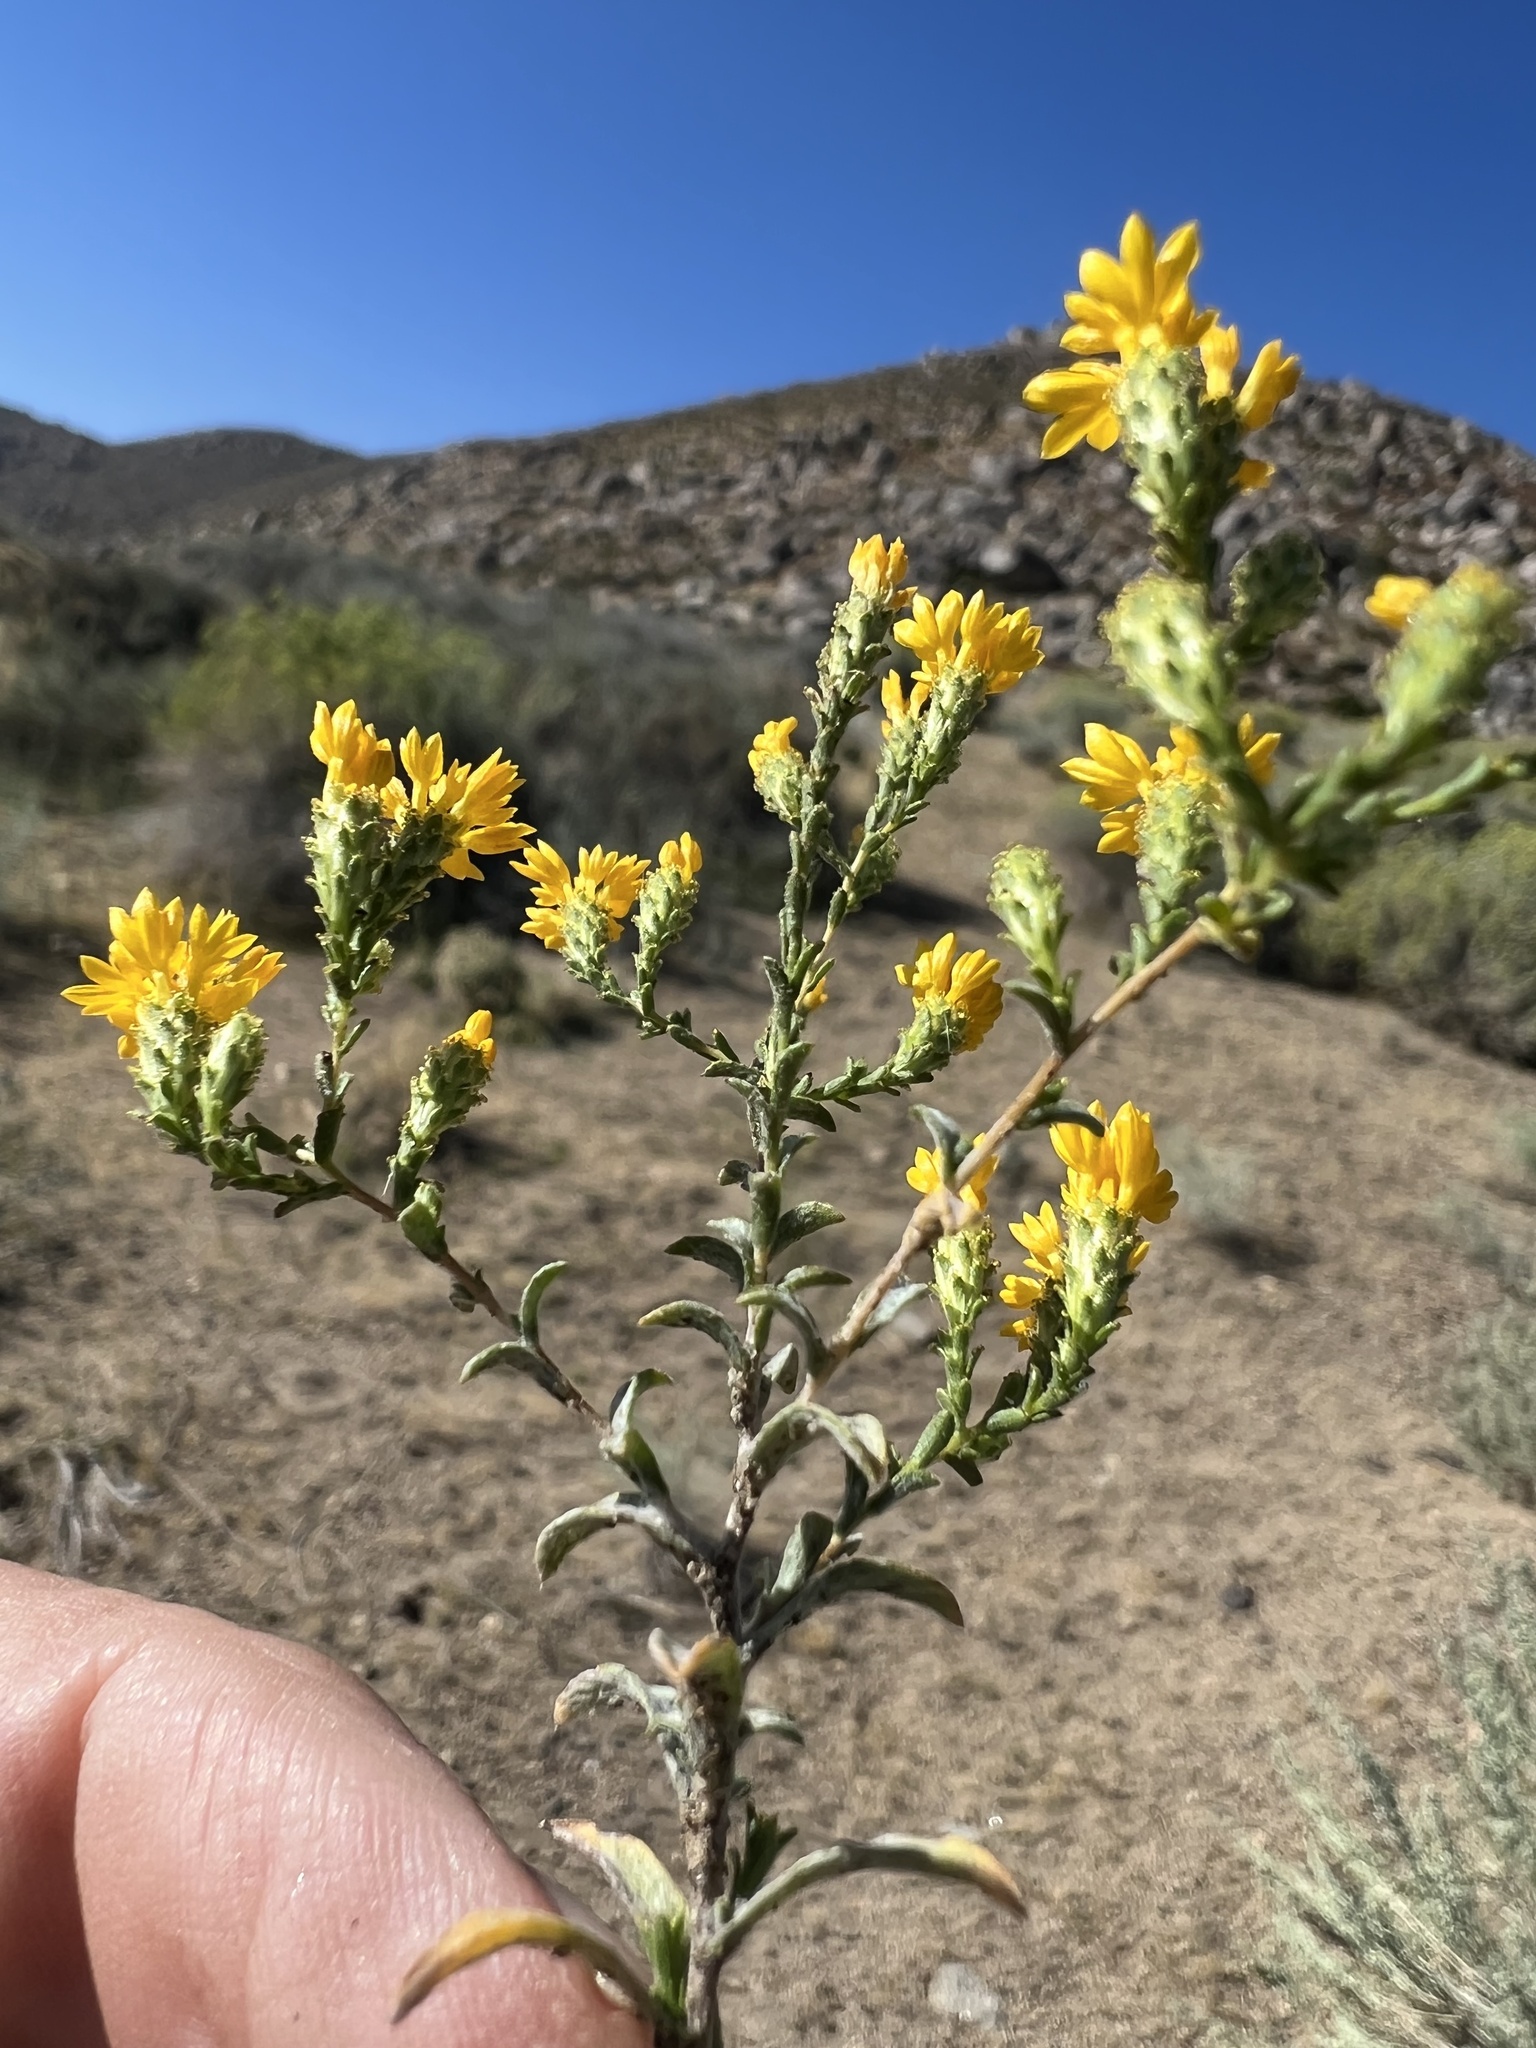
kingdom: Plantae
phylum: Tracheophyta
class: Magnoliopsida
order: Asterales
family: Asteraceae
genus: Lessingia
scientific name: Lessingia glandulifera
